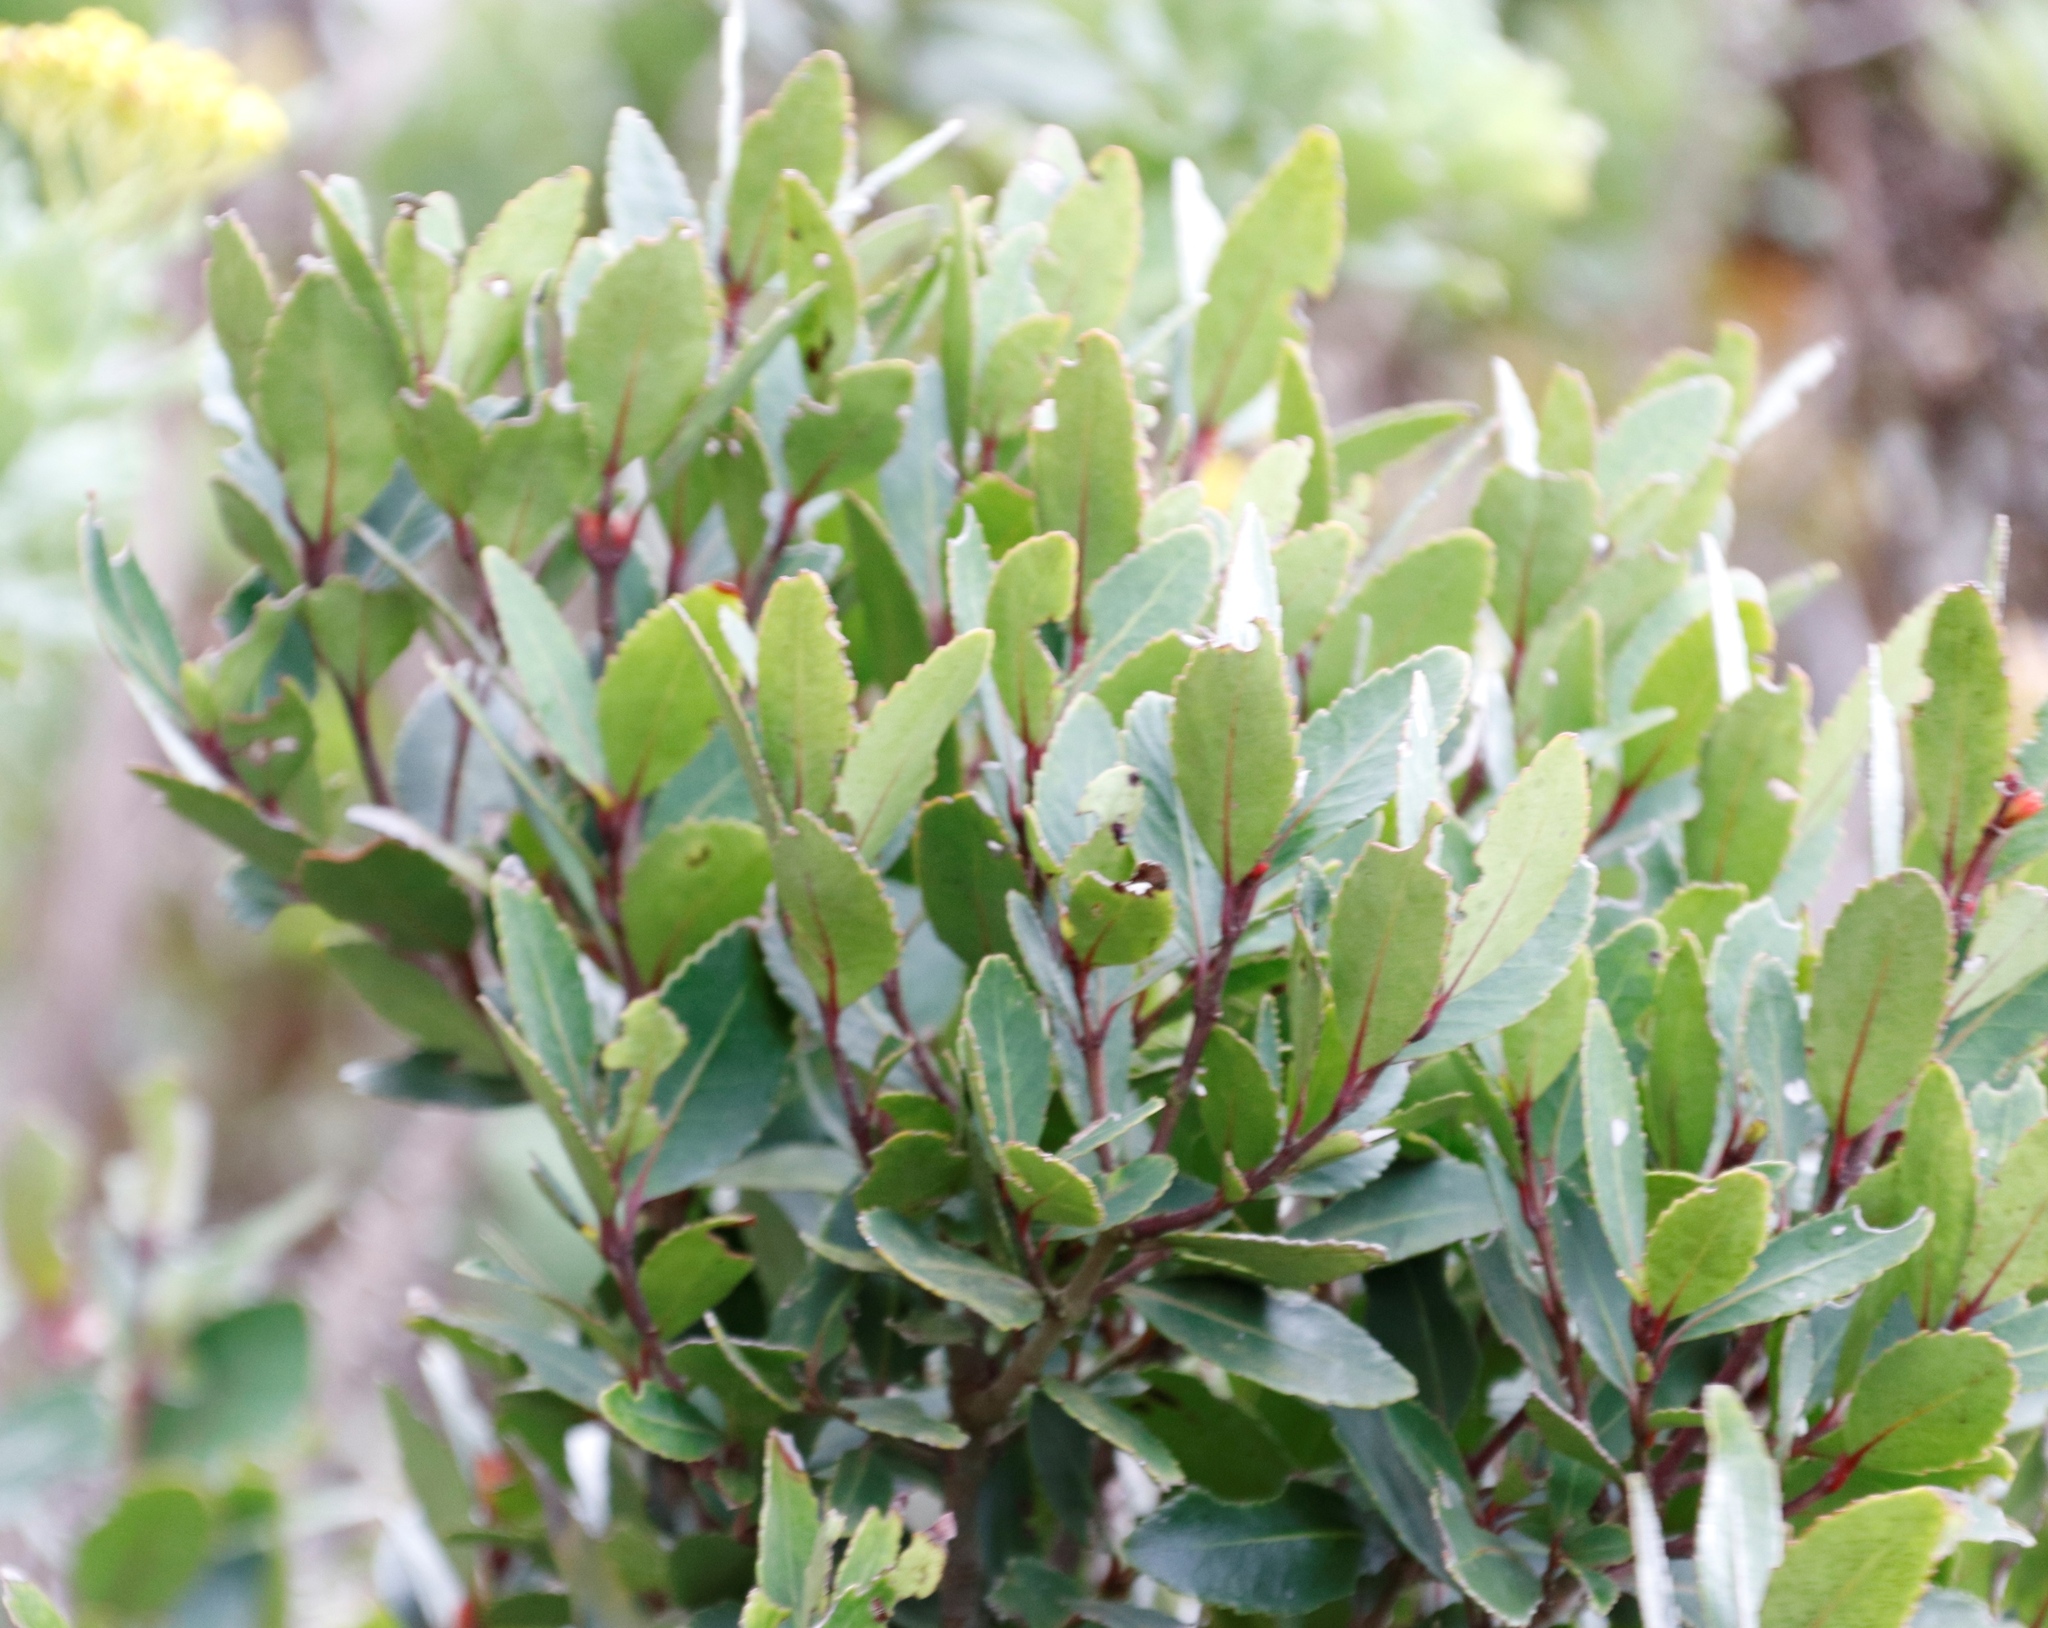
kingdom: Plantae
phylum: Tracheophyta
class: Magnoliopsida
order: Celastrales
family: Celastraceae
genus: Elaeodendron
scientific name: Elaeodendron schinoides
